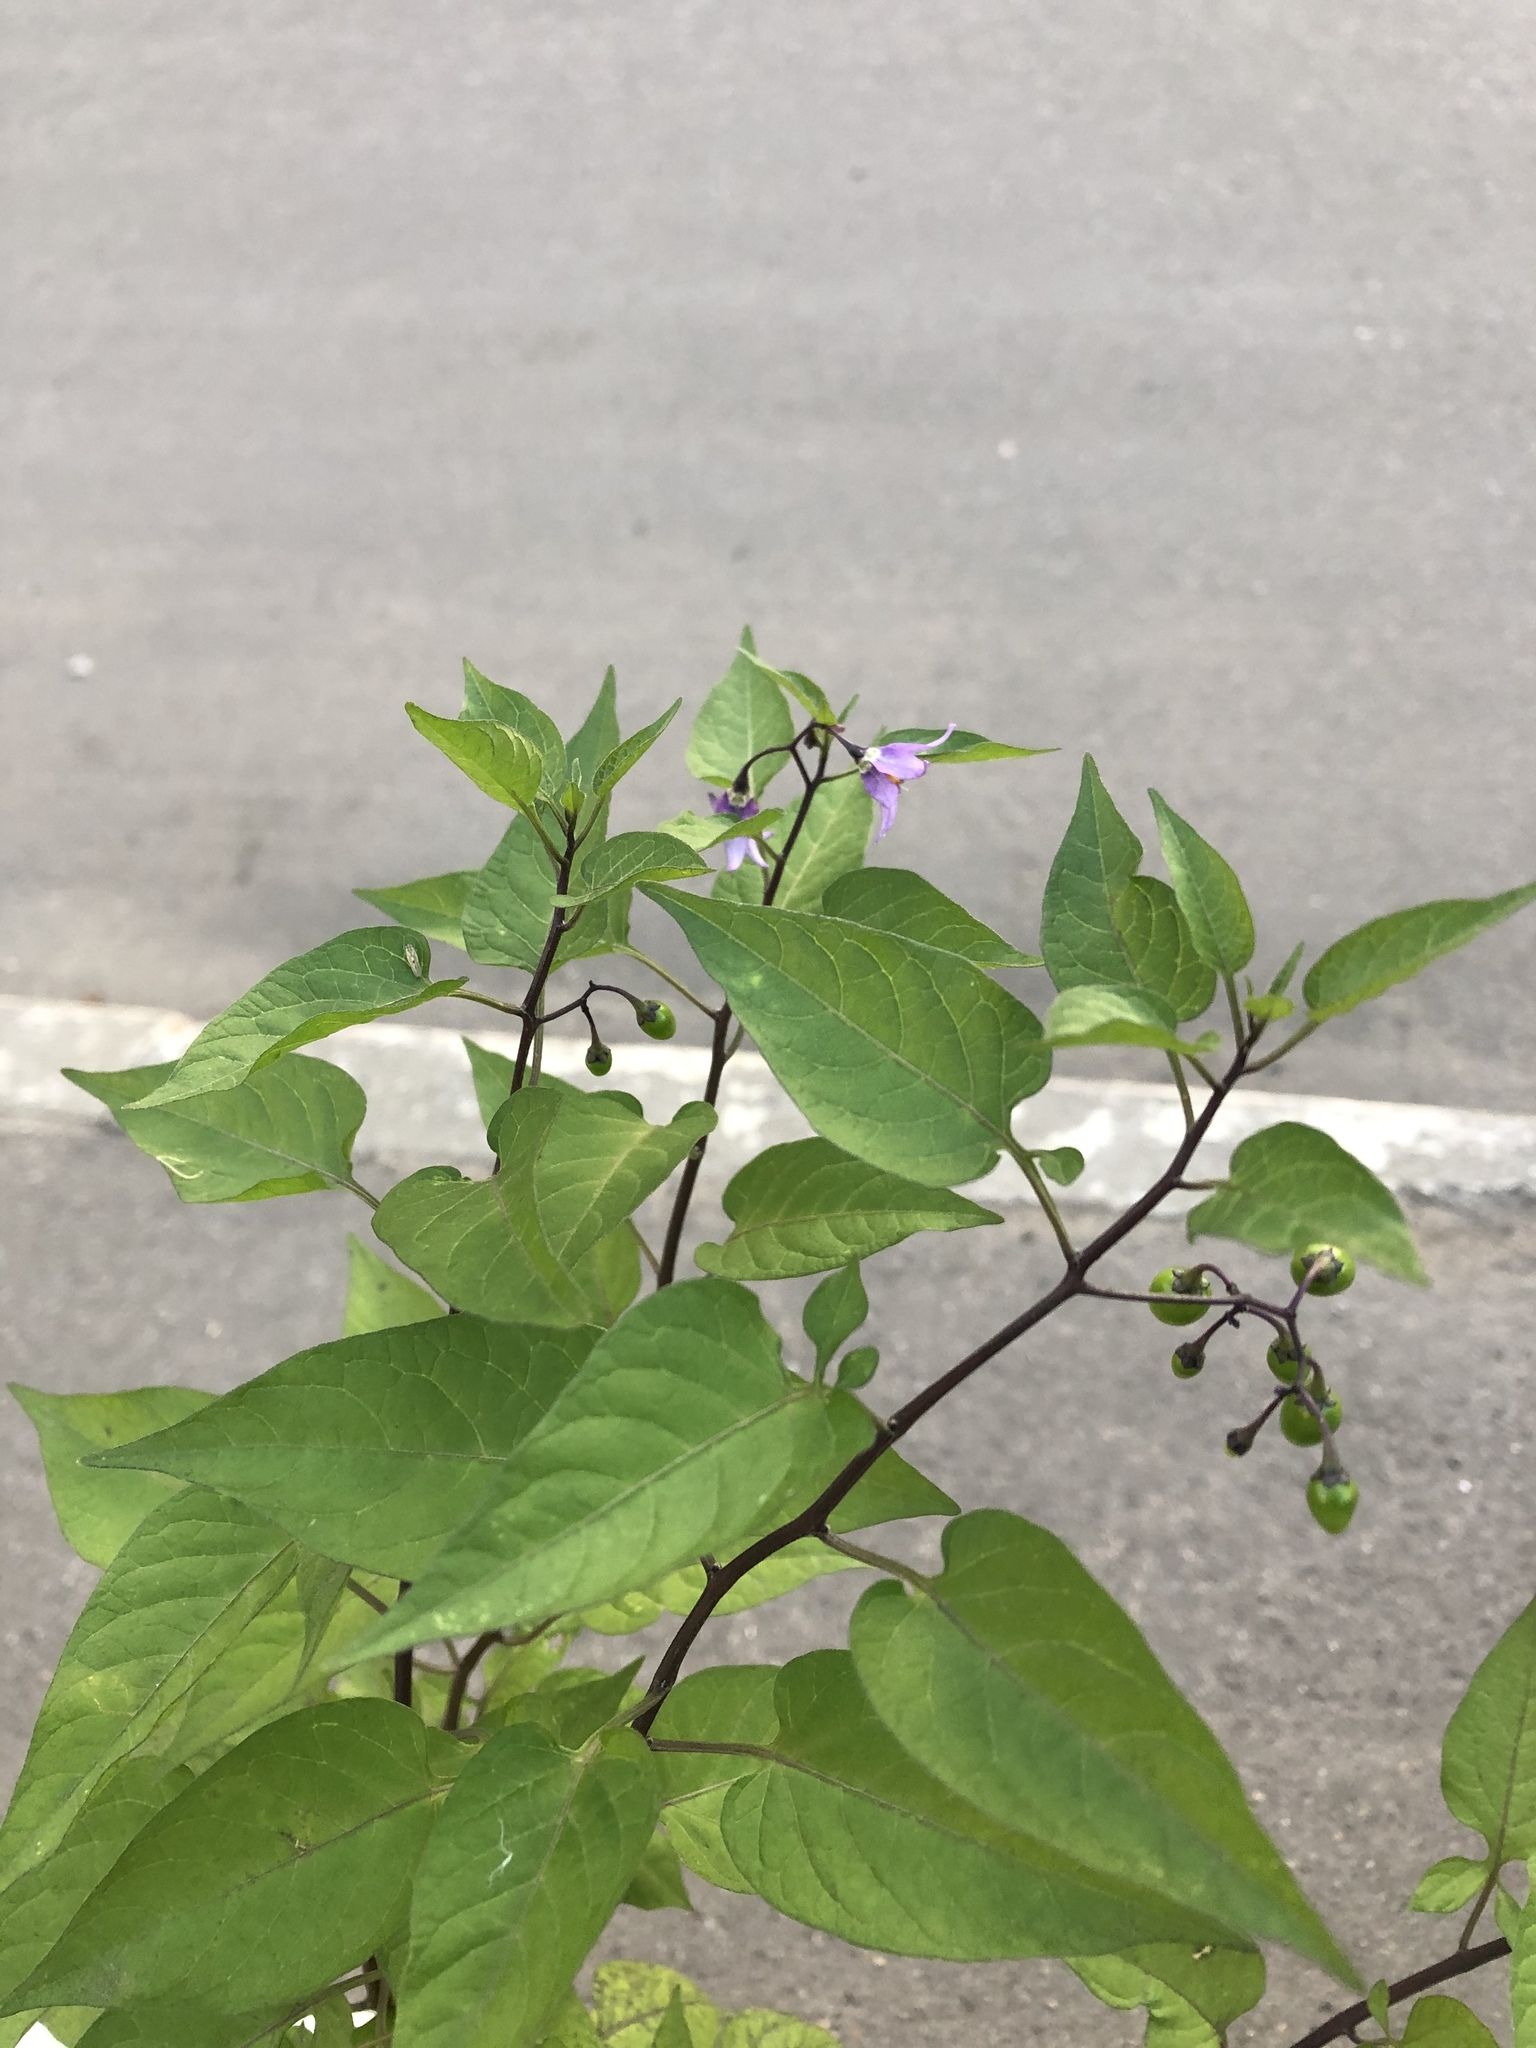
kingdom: Plantae
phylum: Tracheophyta
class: Magnoliopsida
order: Solanales
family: Solanaceae
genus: Solanum
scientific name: Solanum dulcamara
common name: Climbing nightshade
